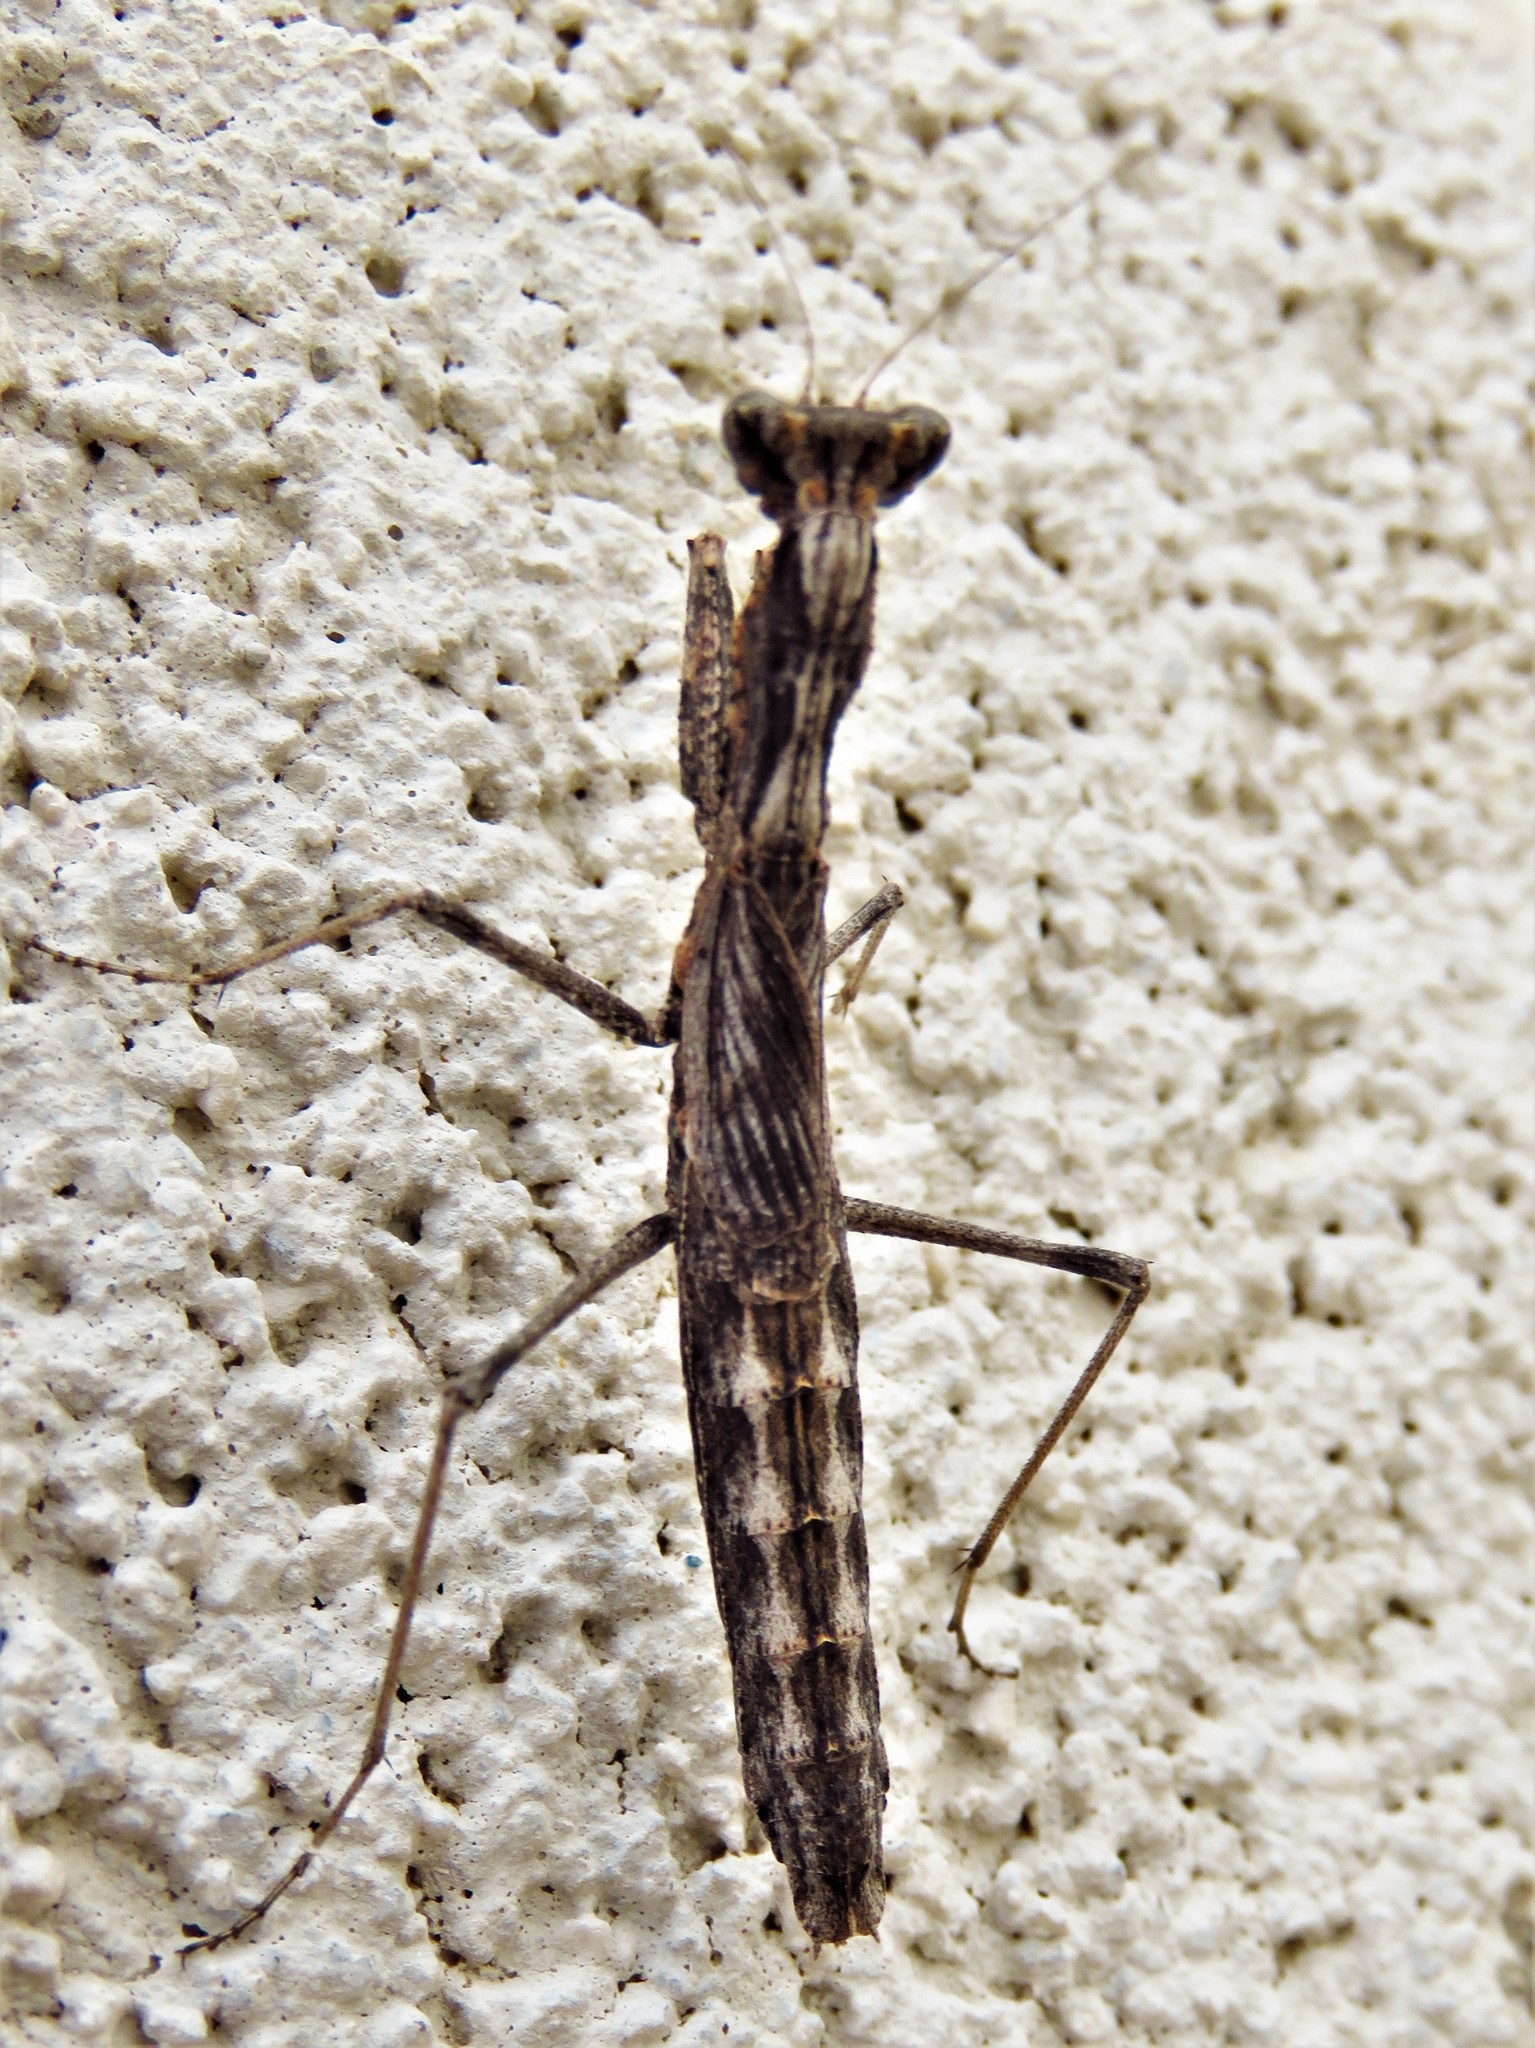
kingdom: Animalia
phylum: Arthropoda
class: Insecta
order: Mantodea
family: Amelidae
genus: Litaneutria
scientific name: Litaneutria minor
